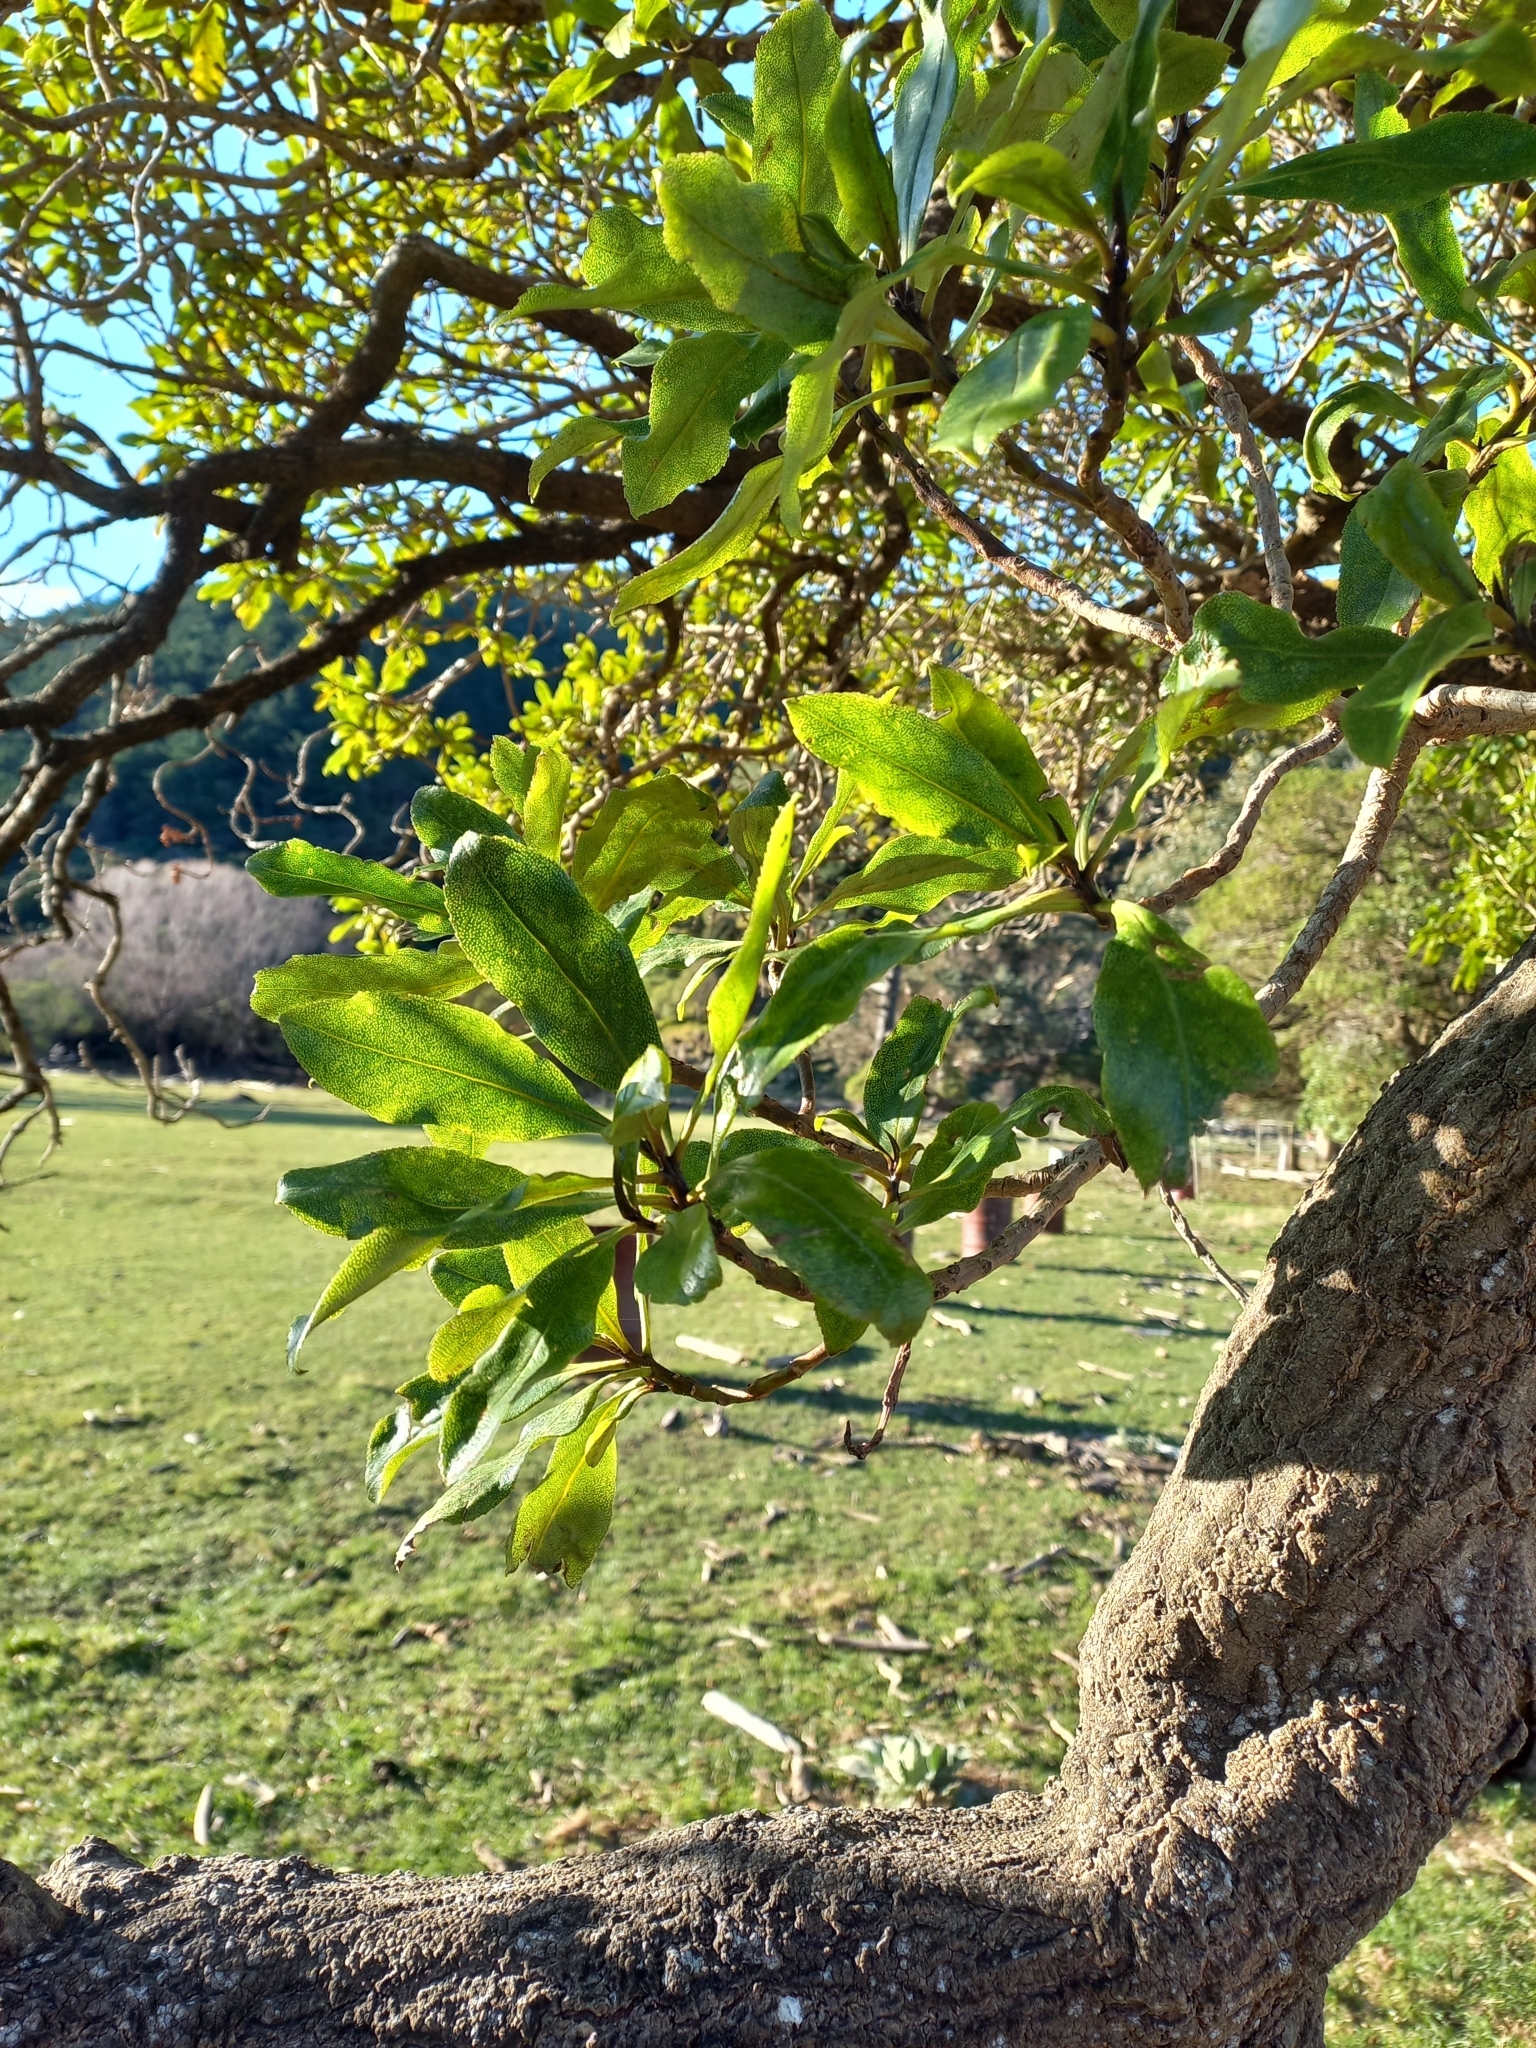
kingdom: Plantae
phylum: Tracheophyta
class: Magnoliopsida
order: Lamiales
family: Scrophulariaceae
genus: Myoporum
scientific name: Myoporum laetum
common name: Ngaio tree
